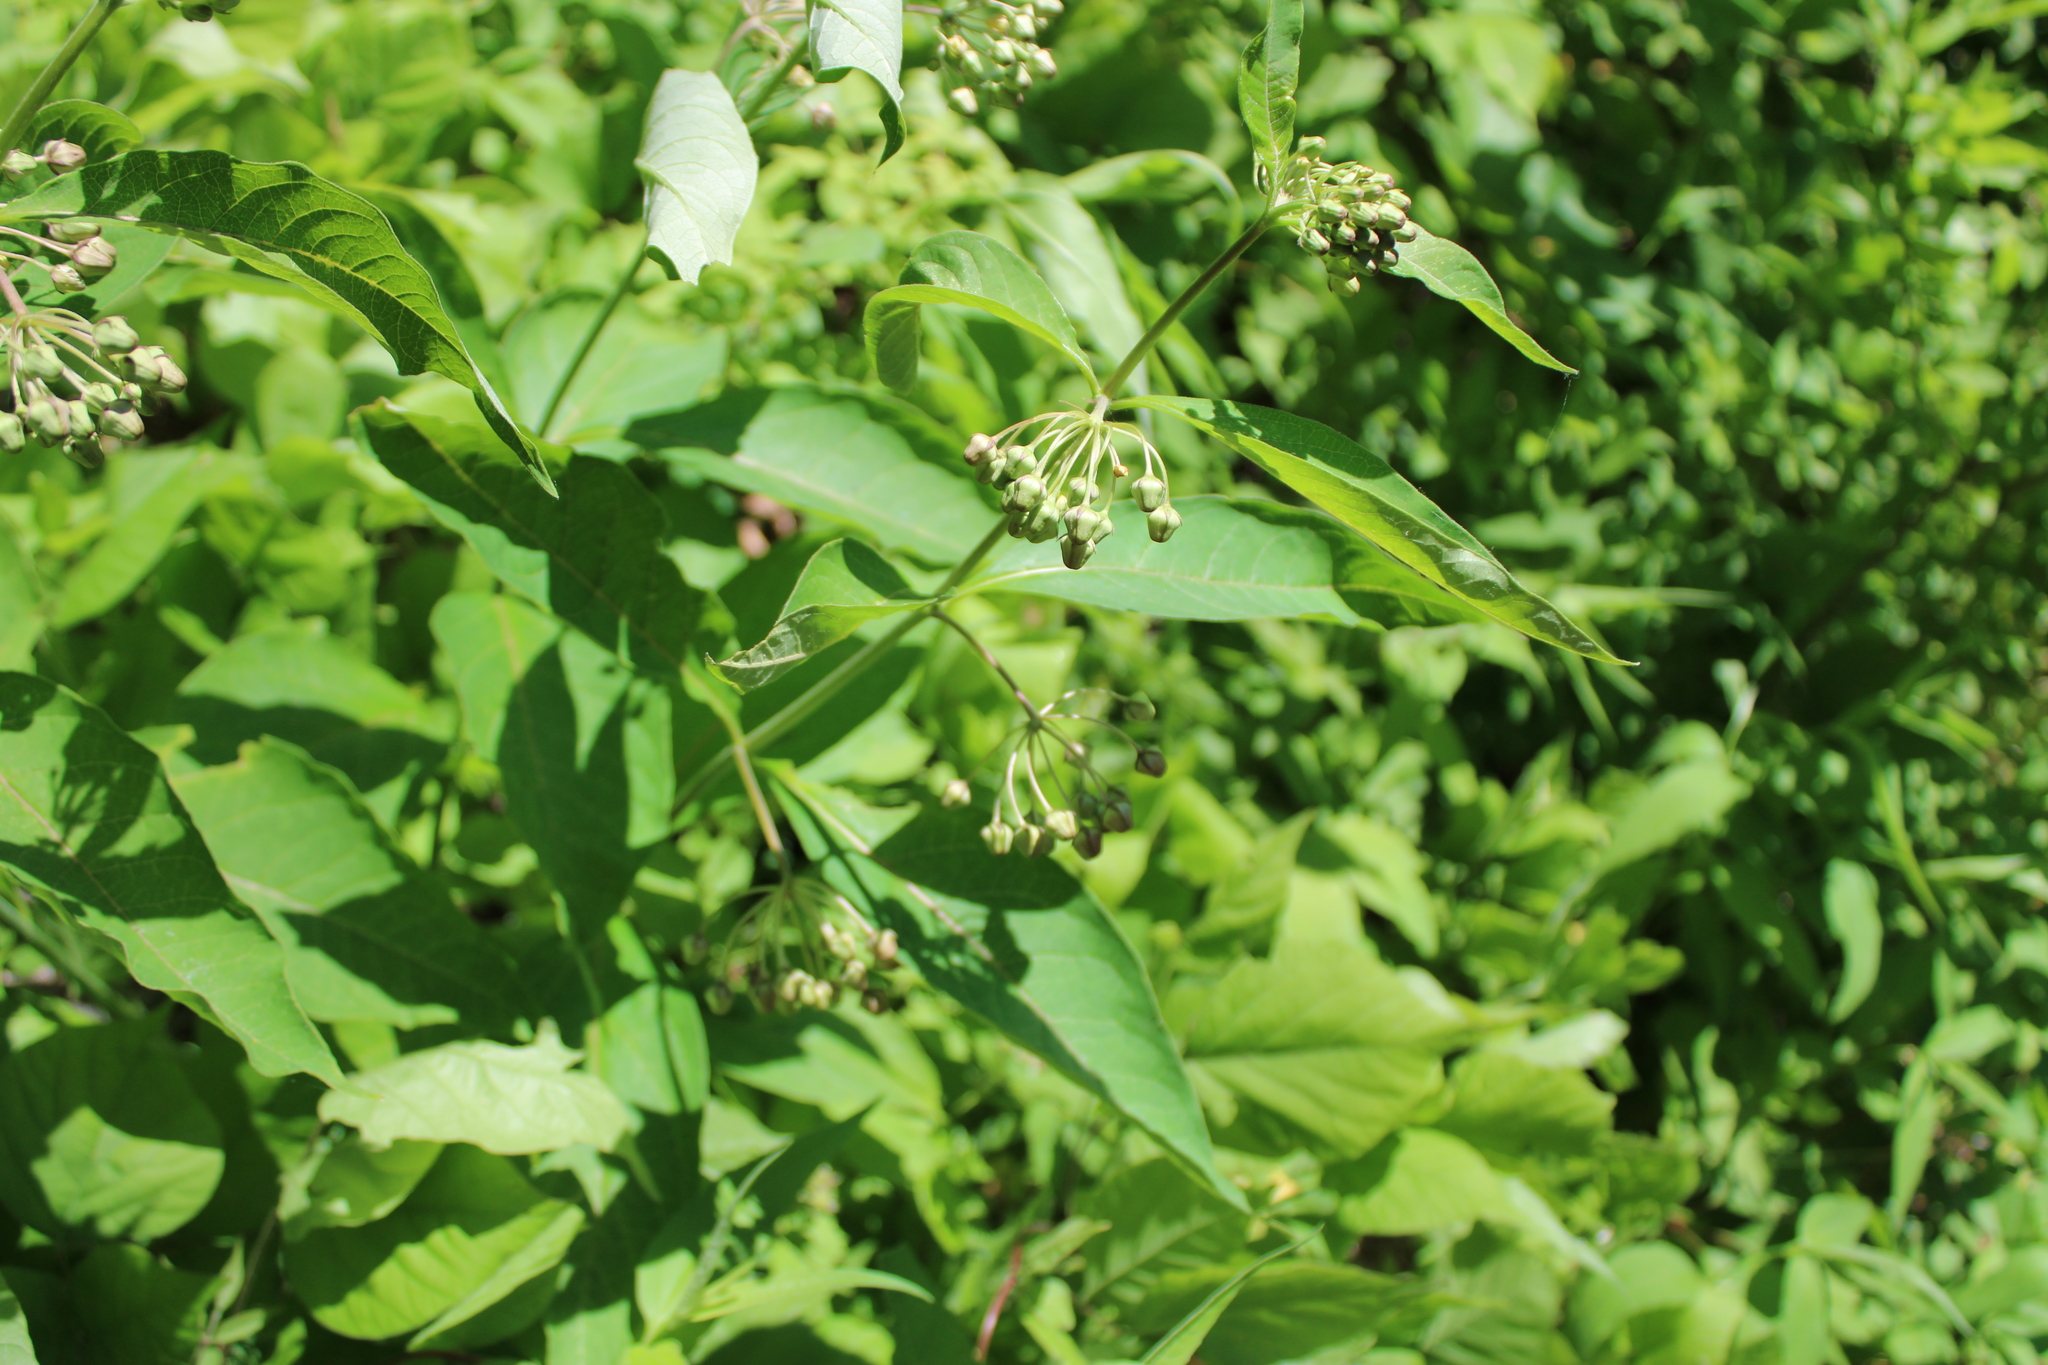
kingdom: Plantae
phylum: Tracheophyta
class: Magnoliopsida
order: Gentianales
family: Apocynaceae
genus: Asclepias
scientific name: Asclepias exaltata
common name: Poke milkweed
